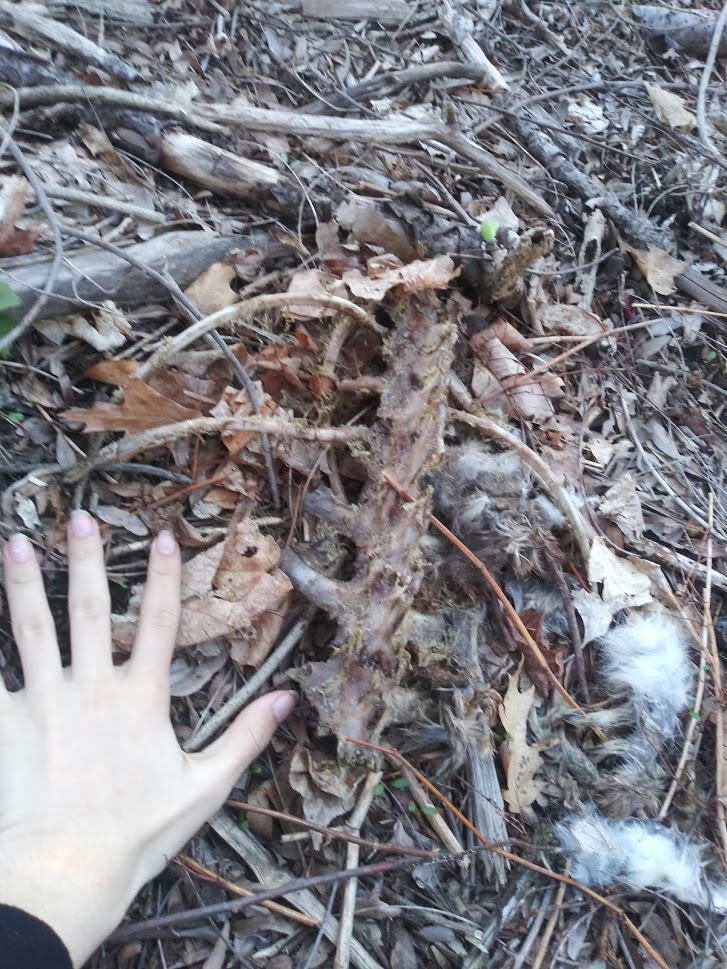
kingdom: Animalia
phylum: Chordata
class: Mammalia
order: Artiodactyla
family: Cervidae
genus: Odocoileus
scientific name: Odocoileus virginianus
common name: White-tailed deer
